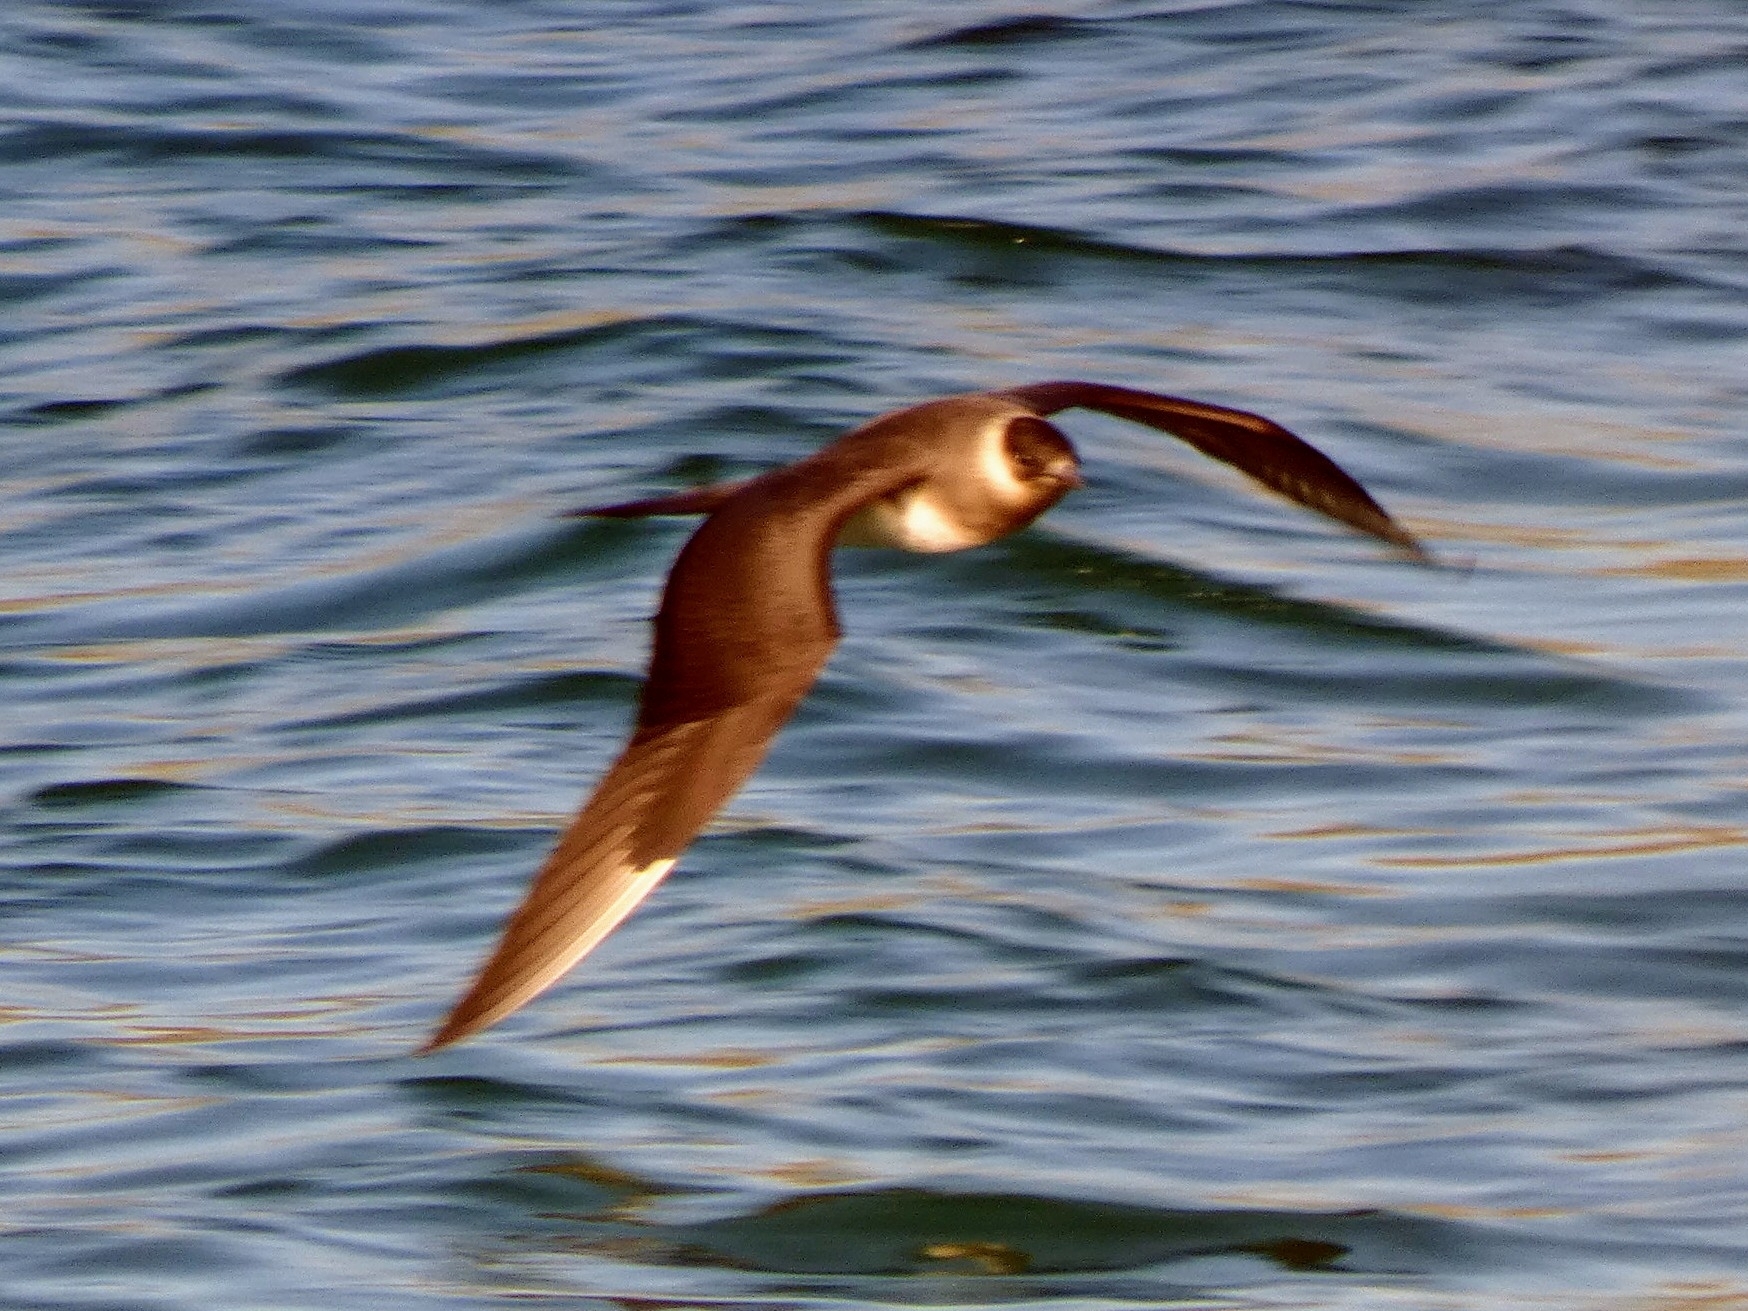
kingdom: Animalia
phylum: Chordata
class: Aves
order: Charadriiformes
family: Stercorariidae
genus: Stercorarius
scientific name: Stercorarius parasiticus
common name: Parasitic jaeger
